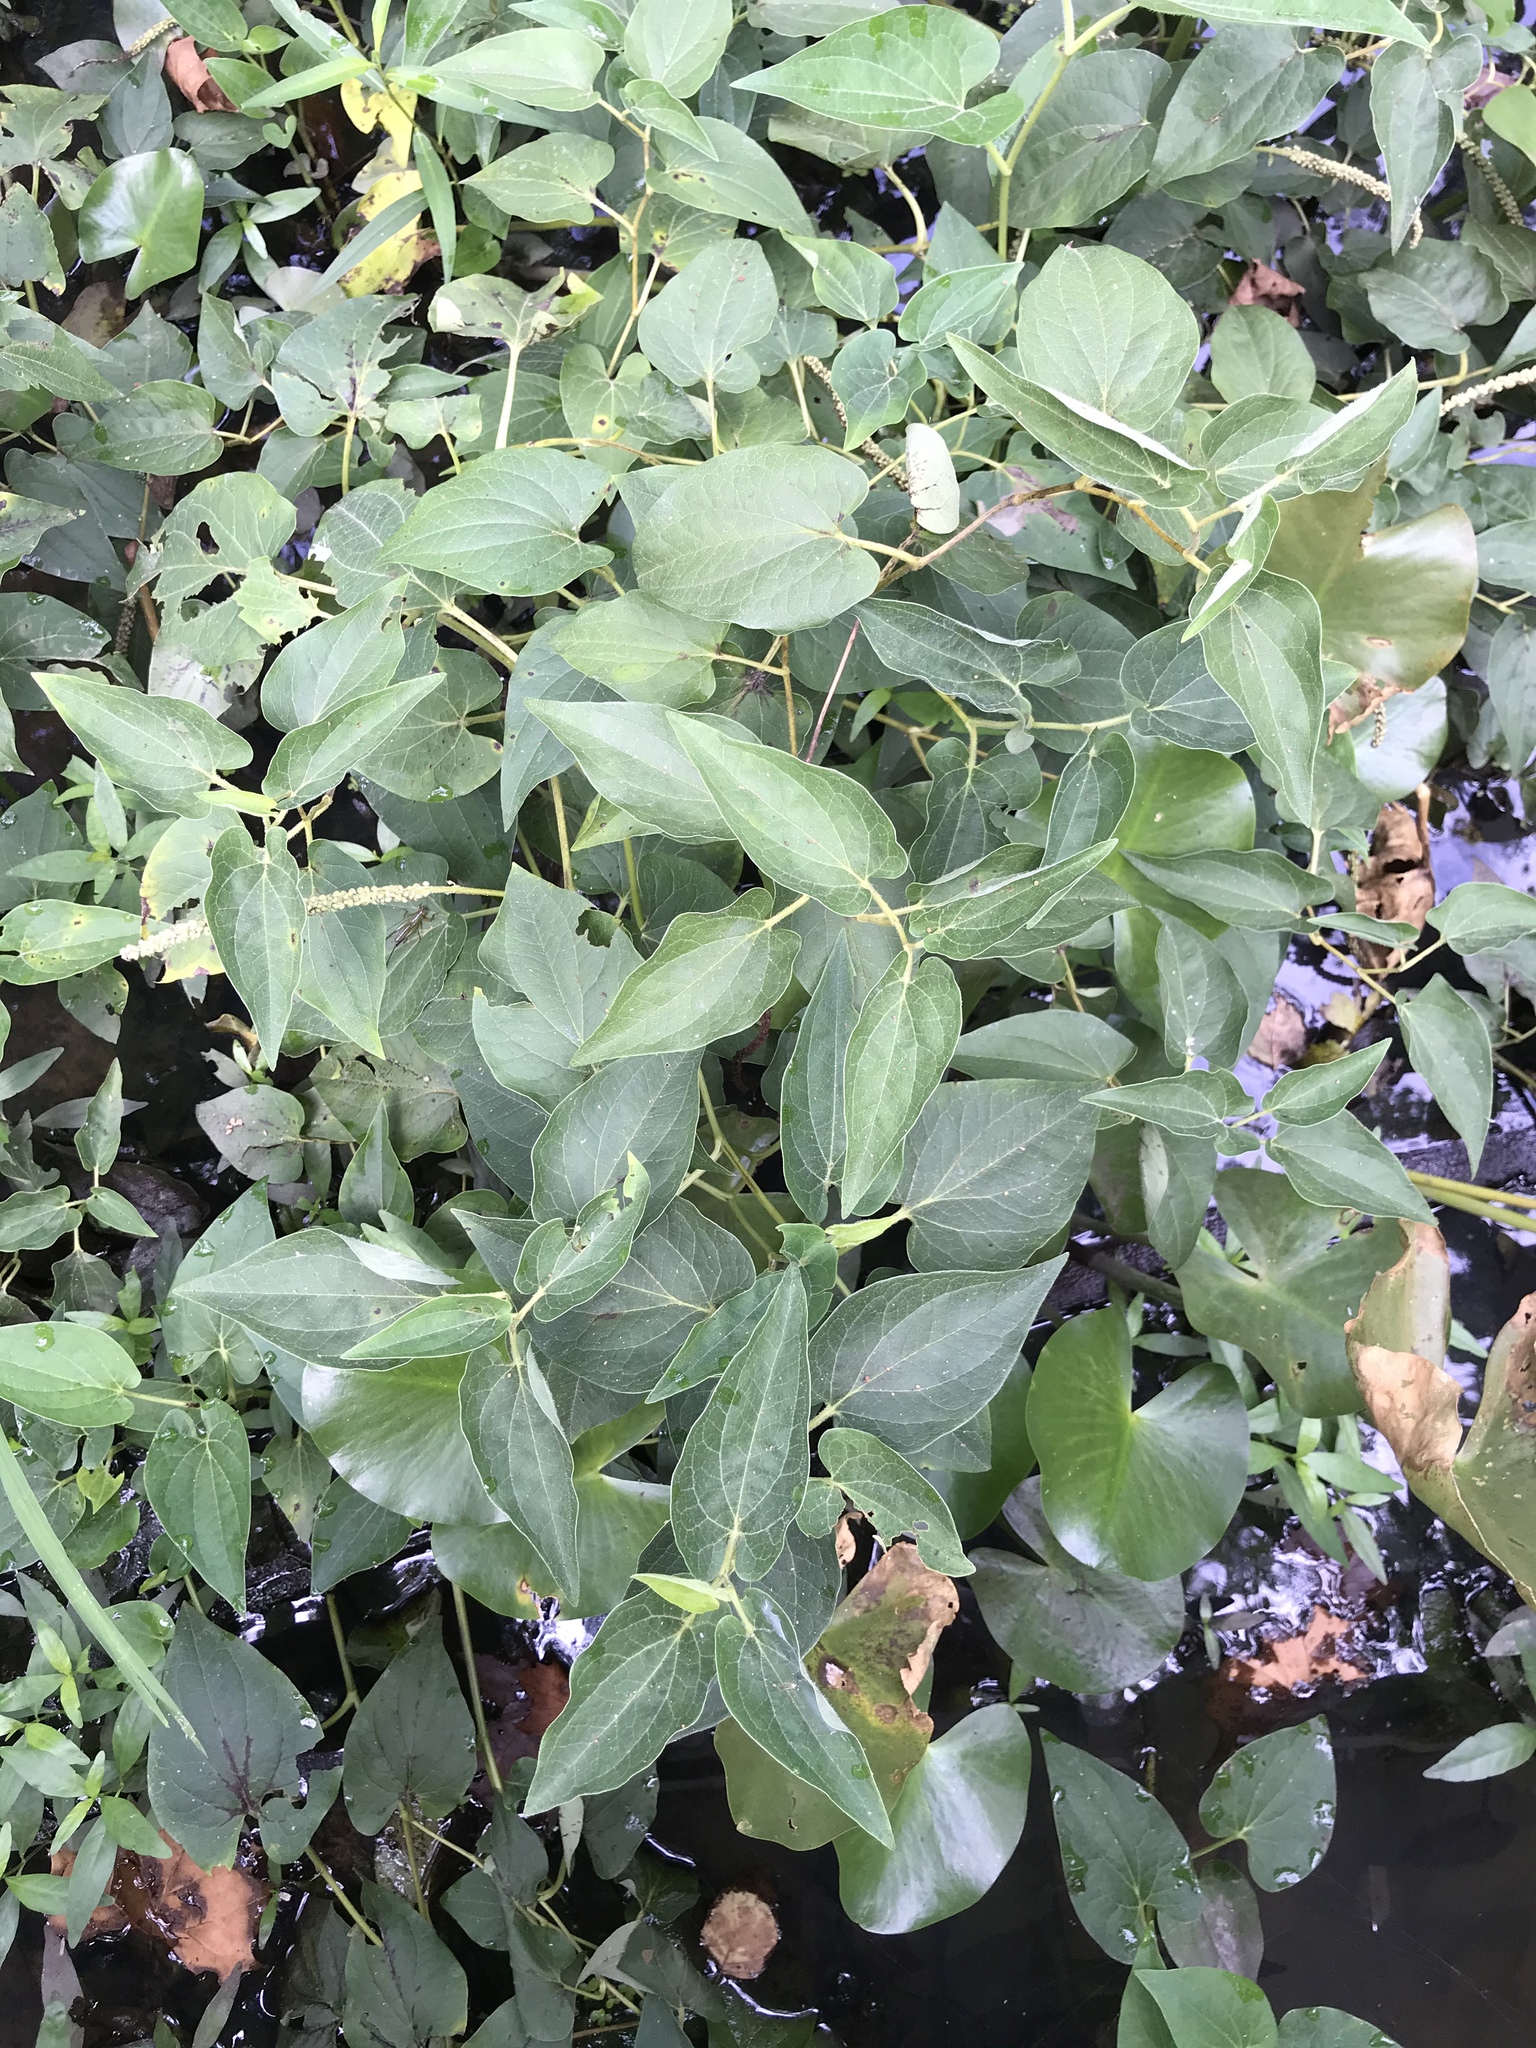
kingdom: Plantae
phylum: Tracheophyta
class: Magnoliopsida
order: Piperales
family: Saururaceae
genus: Saururus
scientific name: Saururus cernuus
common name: Lizard's-tail
